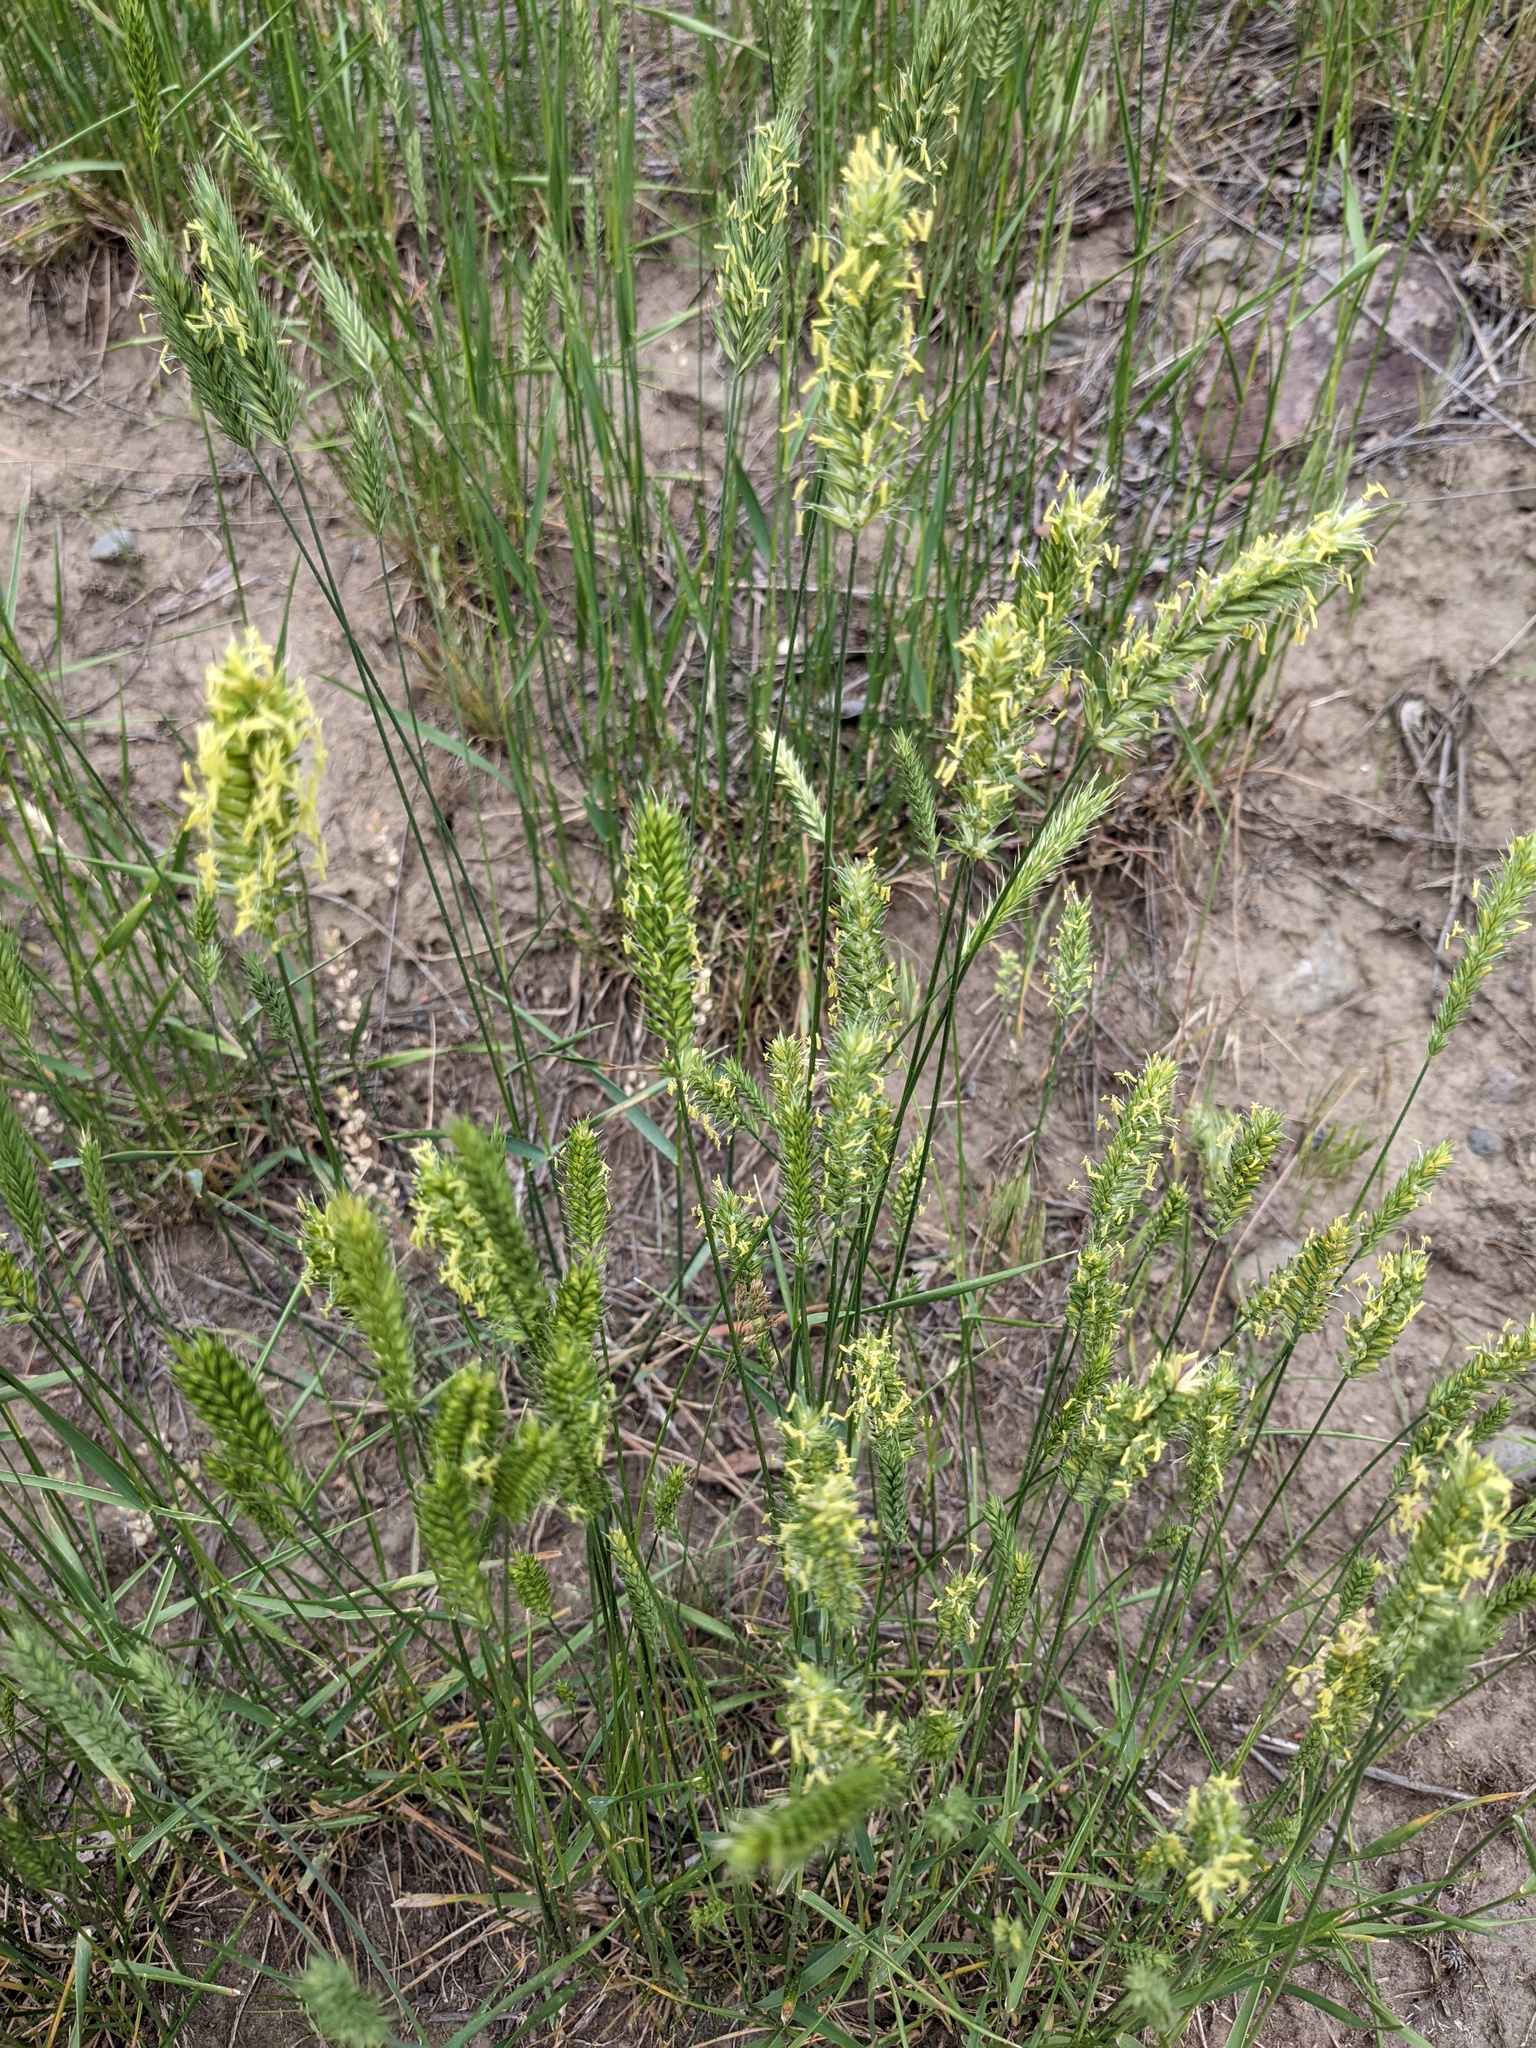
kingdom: Plantae
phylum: Tracheophyta
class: Liliopsida
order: Poales
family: Poaceae
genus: Agropyron
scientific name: Agropyron cristatum
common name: Crested wheatgrass
